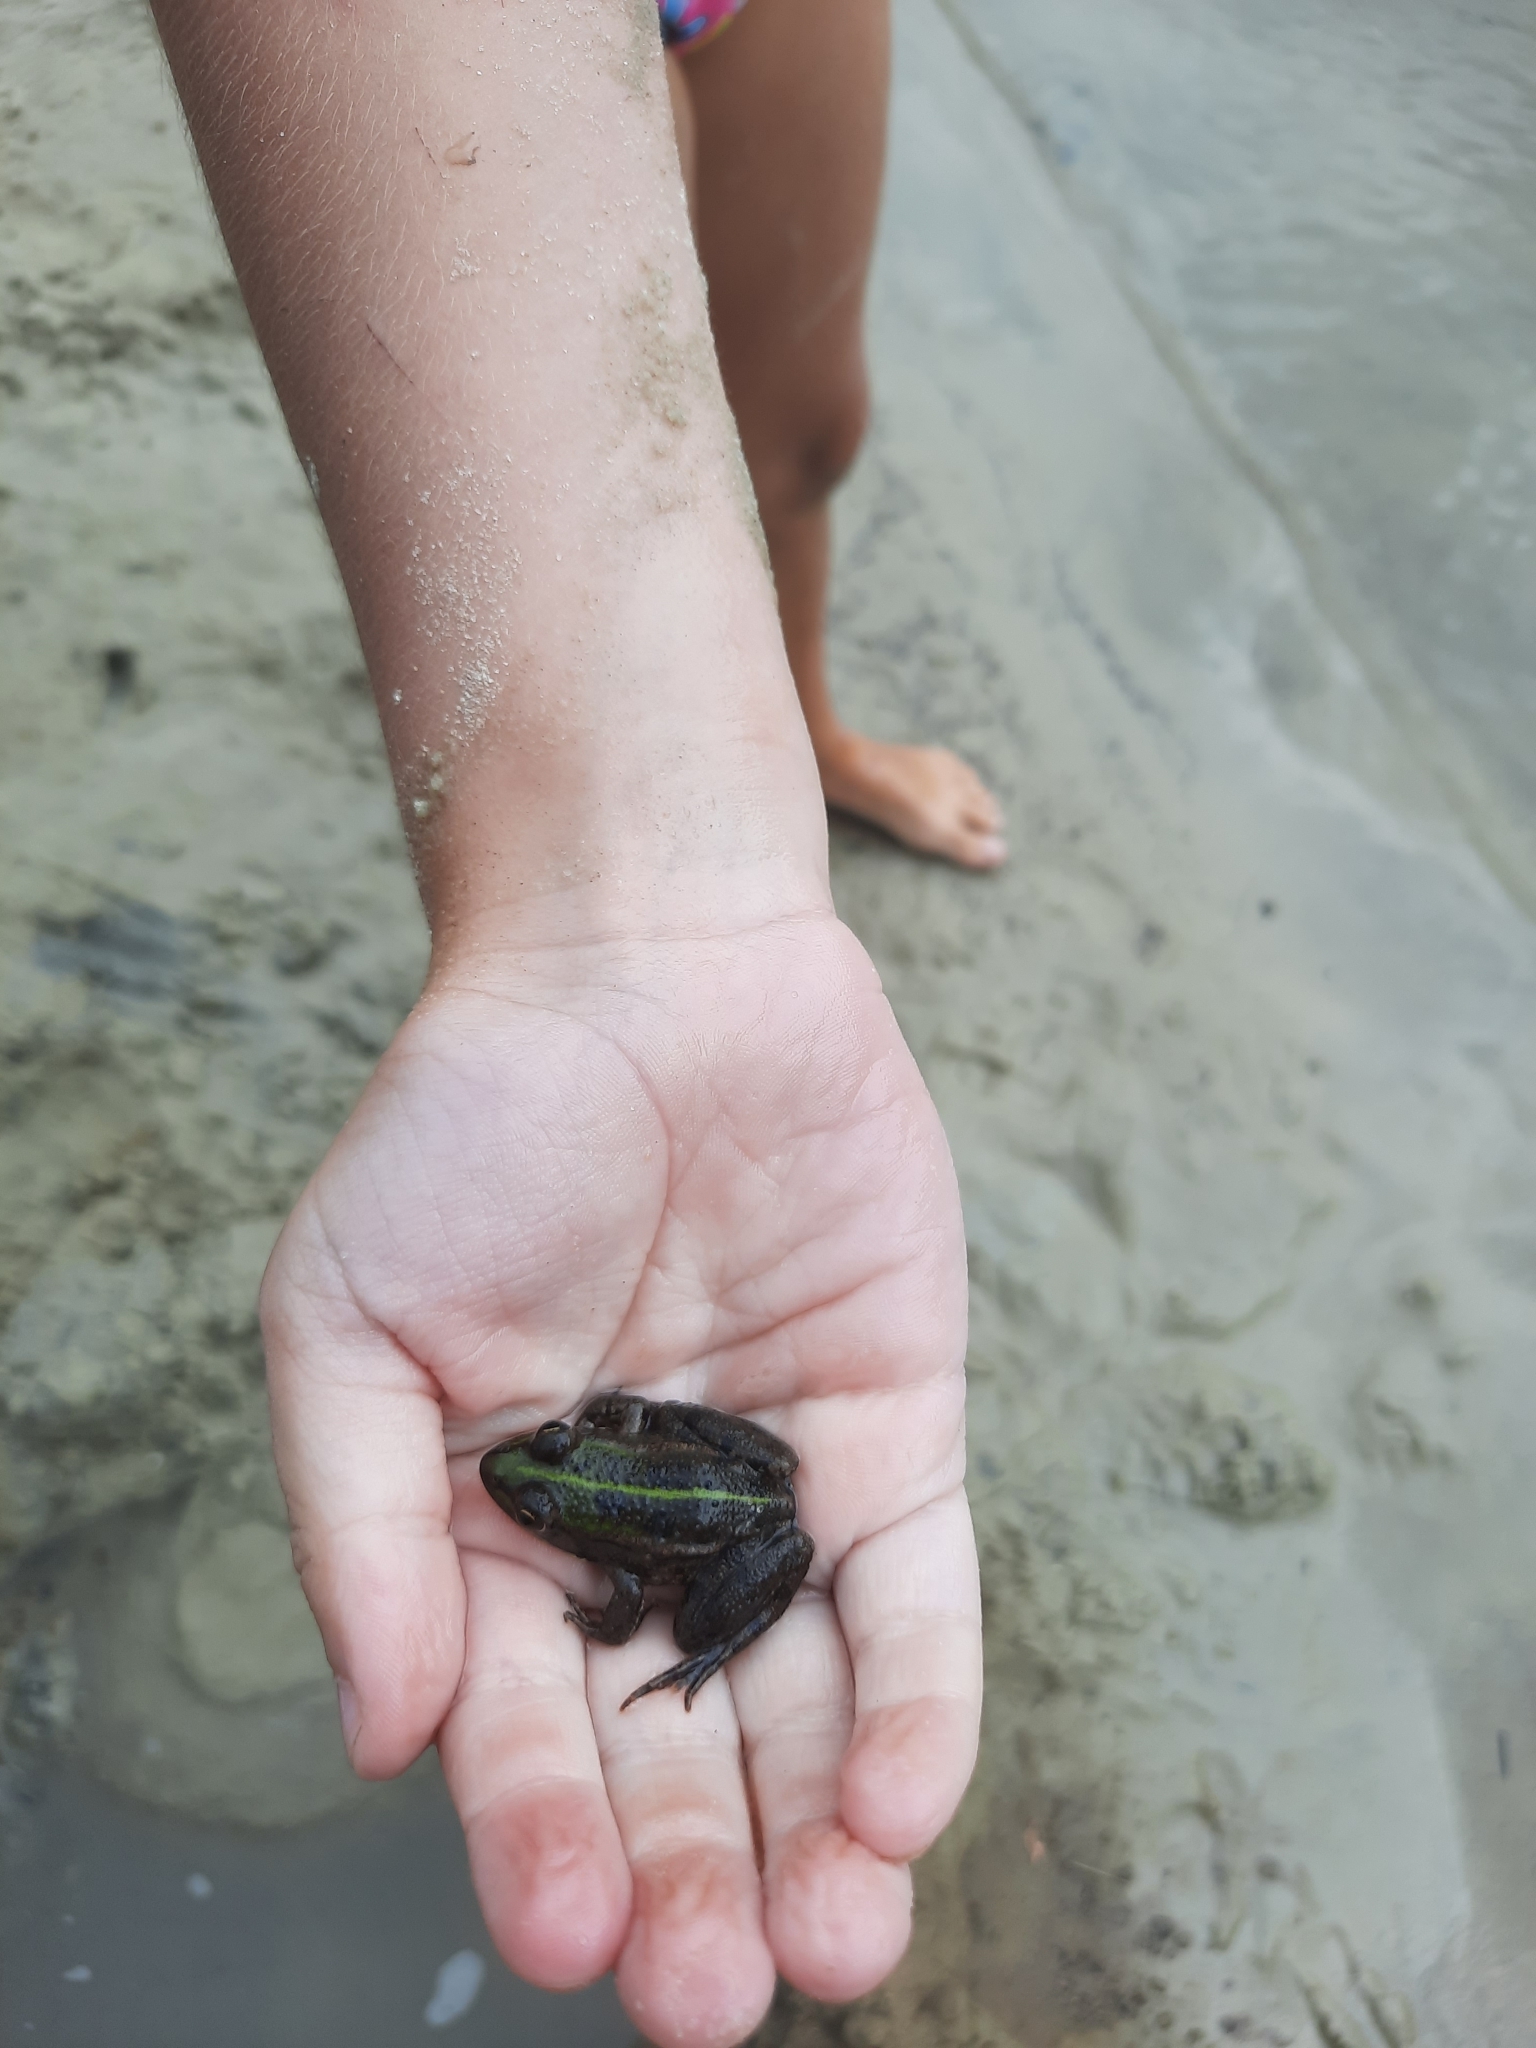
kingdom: Animalia
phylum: Chordata
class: Amphibia
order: Anura
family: Ranidae
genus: Pelophylax
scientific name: Pelophylax ridibundus
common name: Marsh frog
